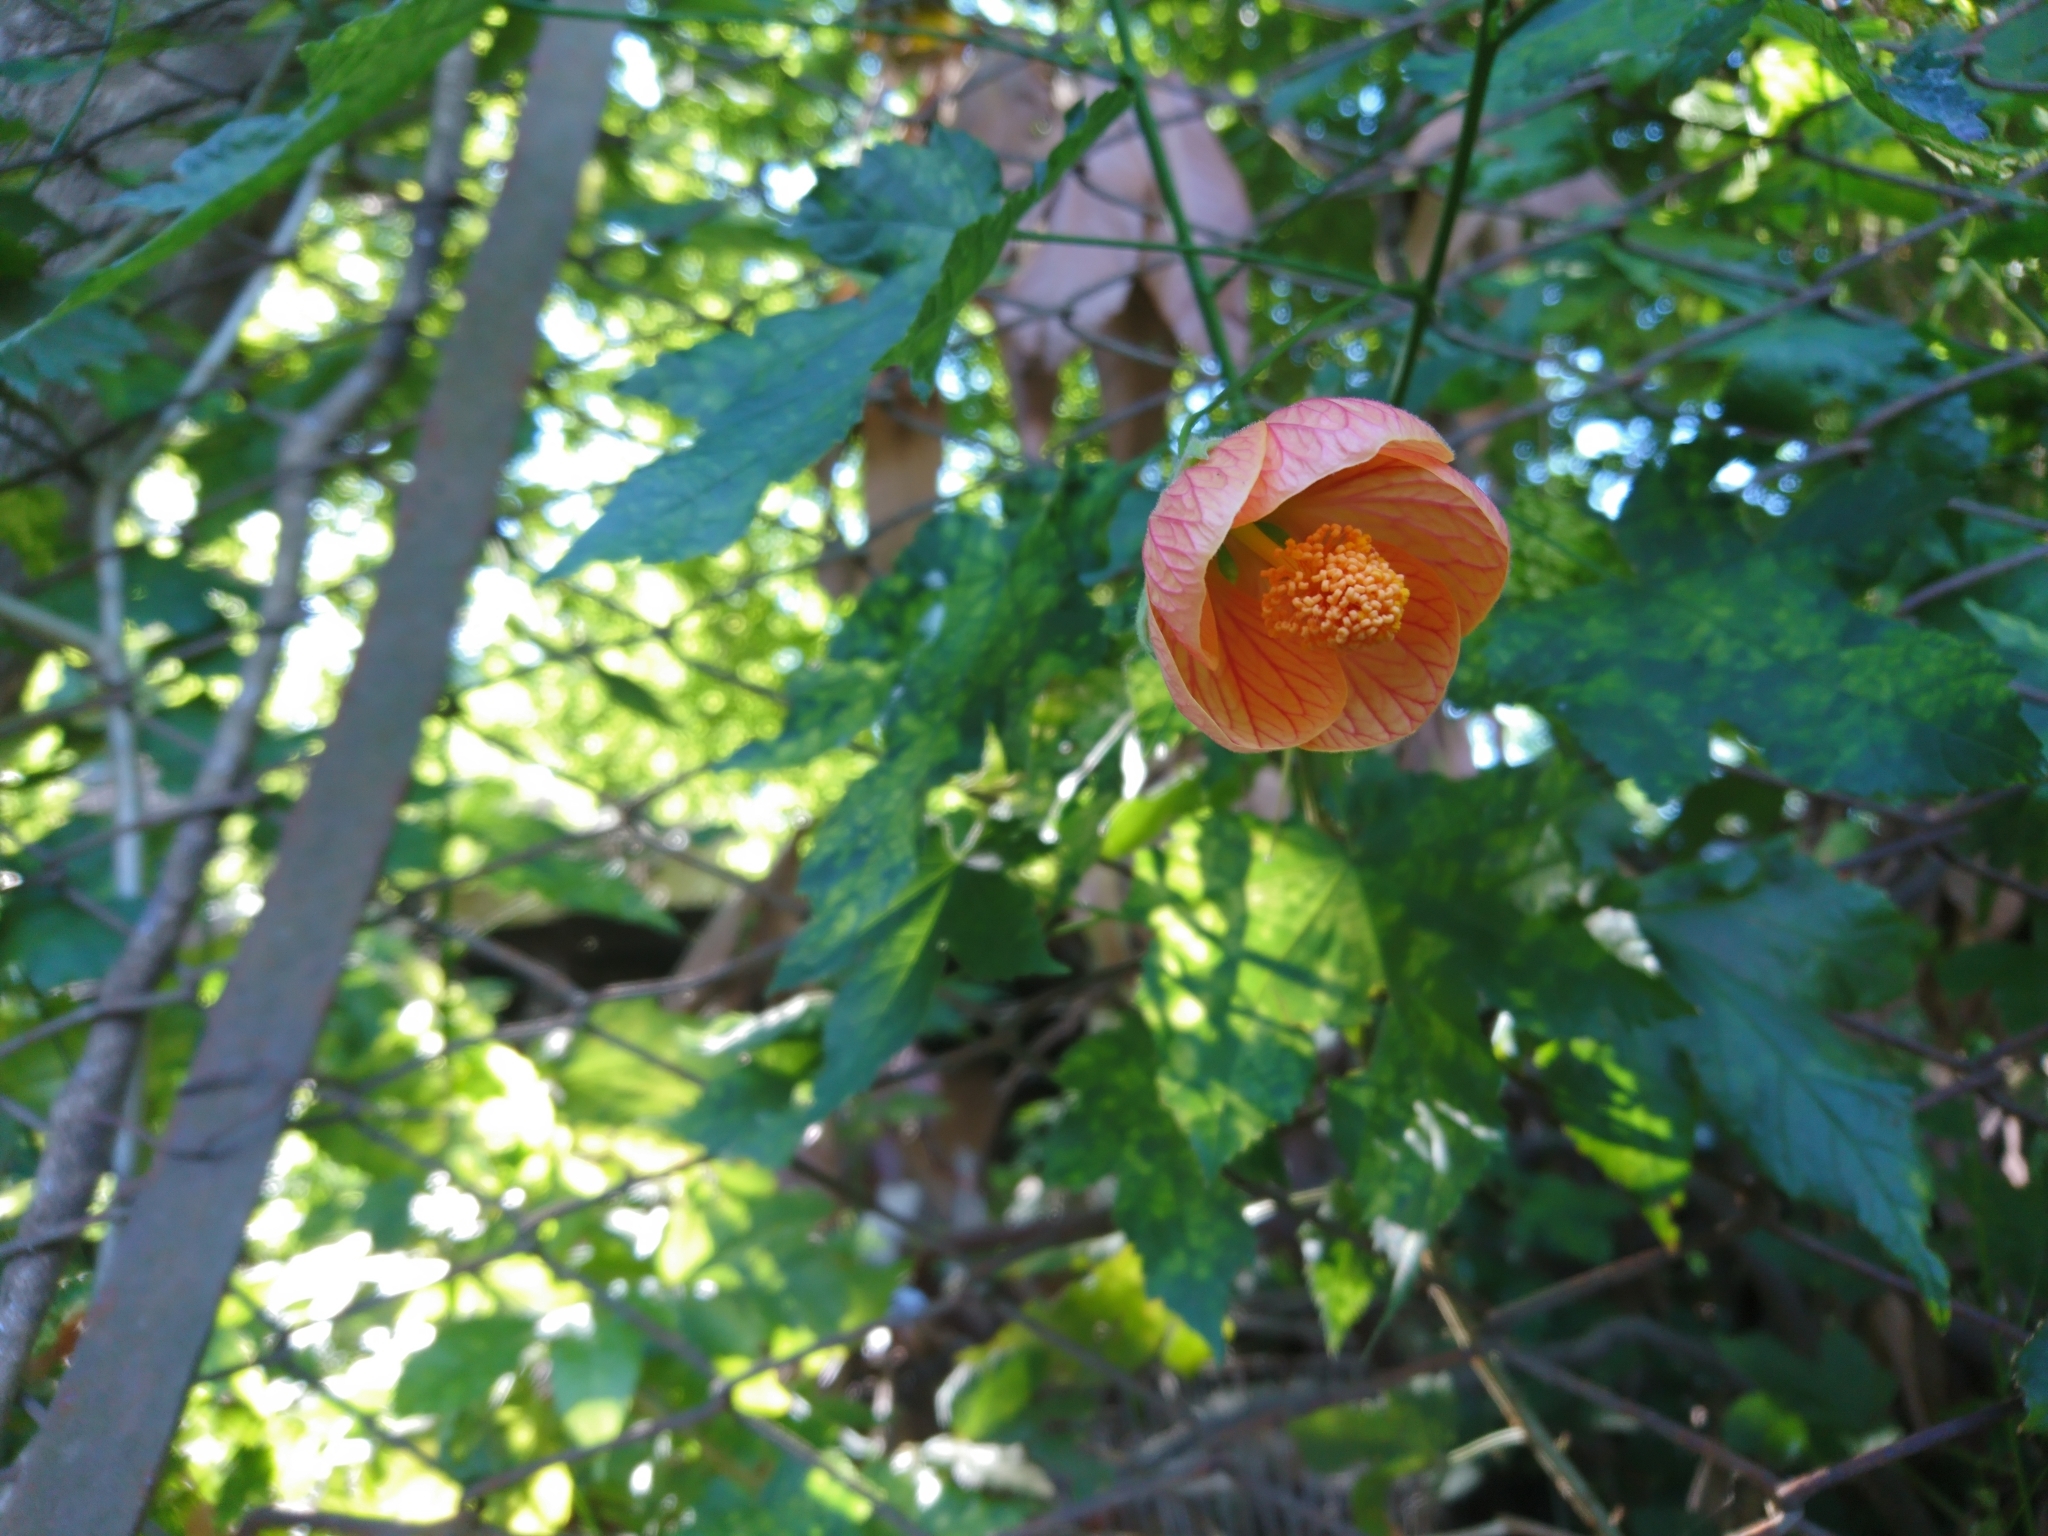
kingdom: Plantae
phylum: Tracheophyta
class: Magnoliopsida
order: Malvales
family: Malvaceae
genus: Callianthe
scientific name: Callianthe picta
